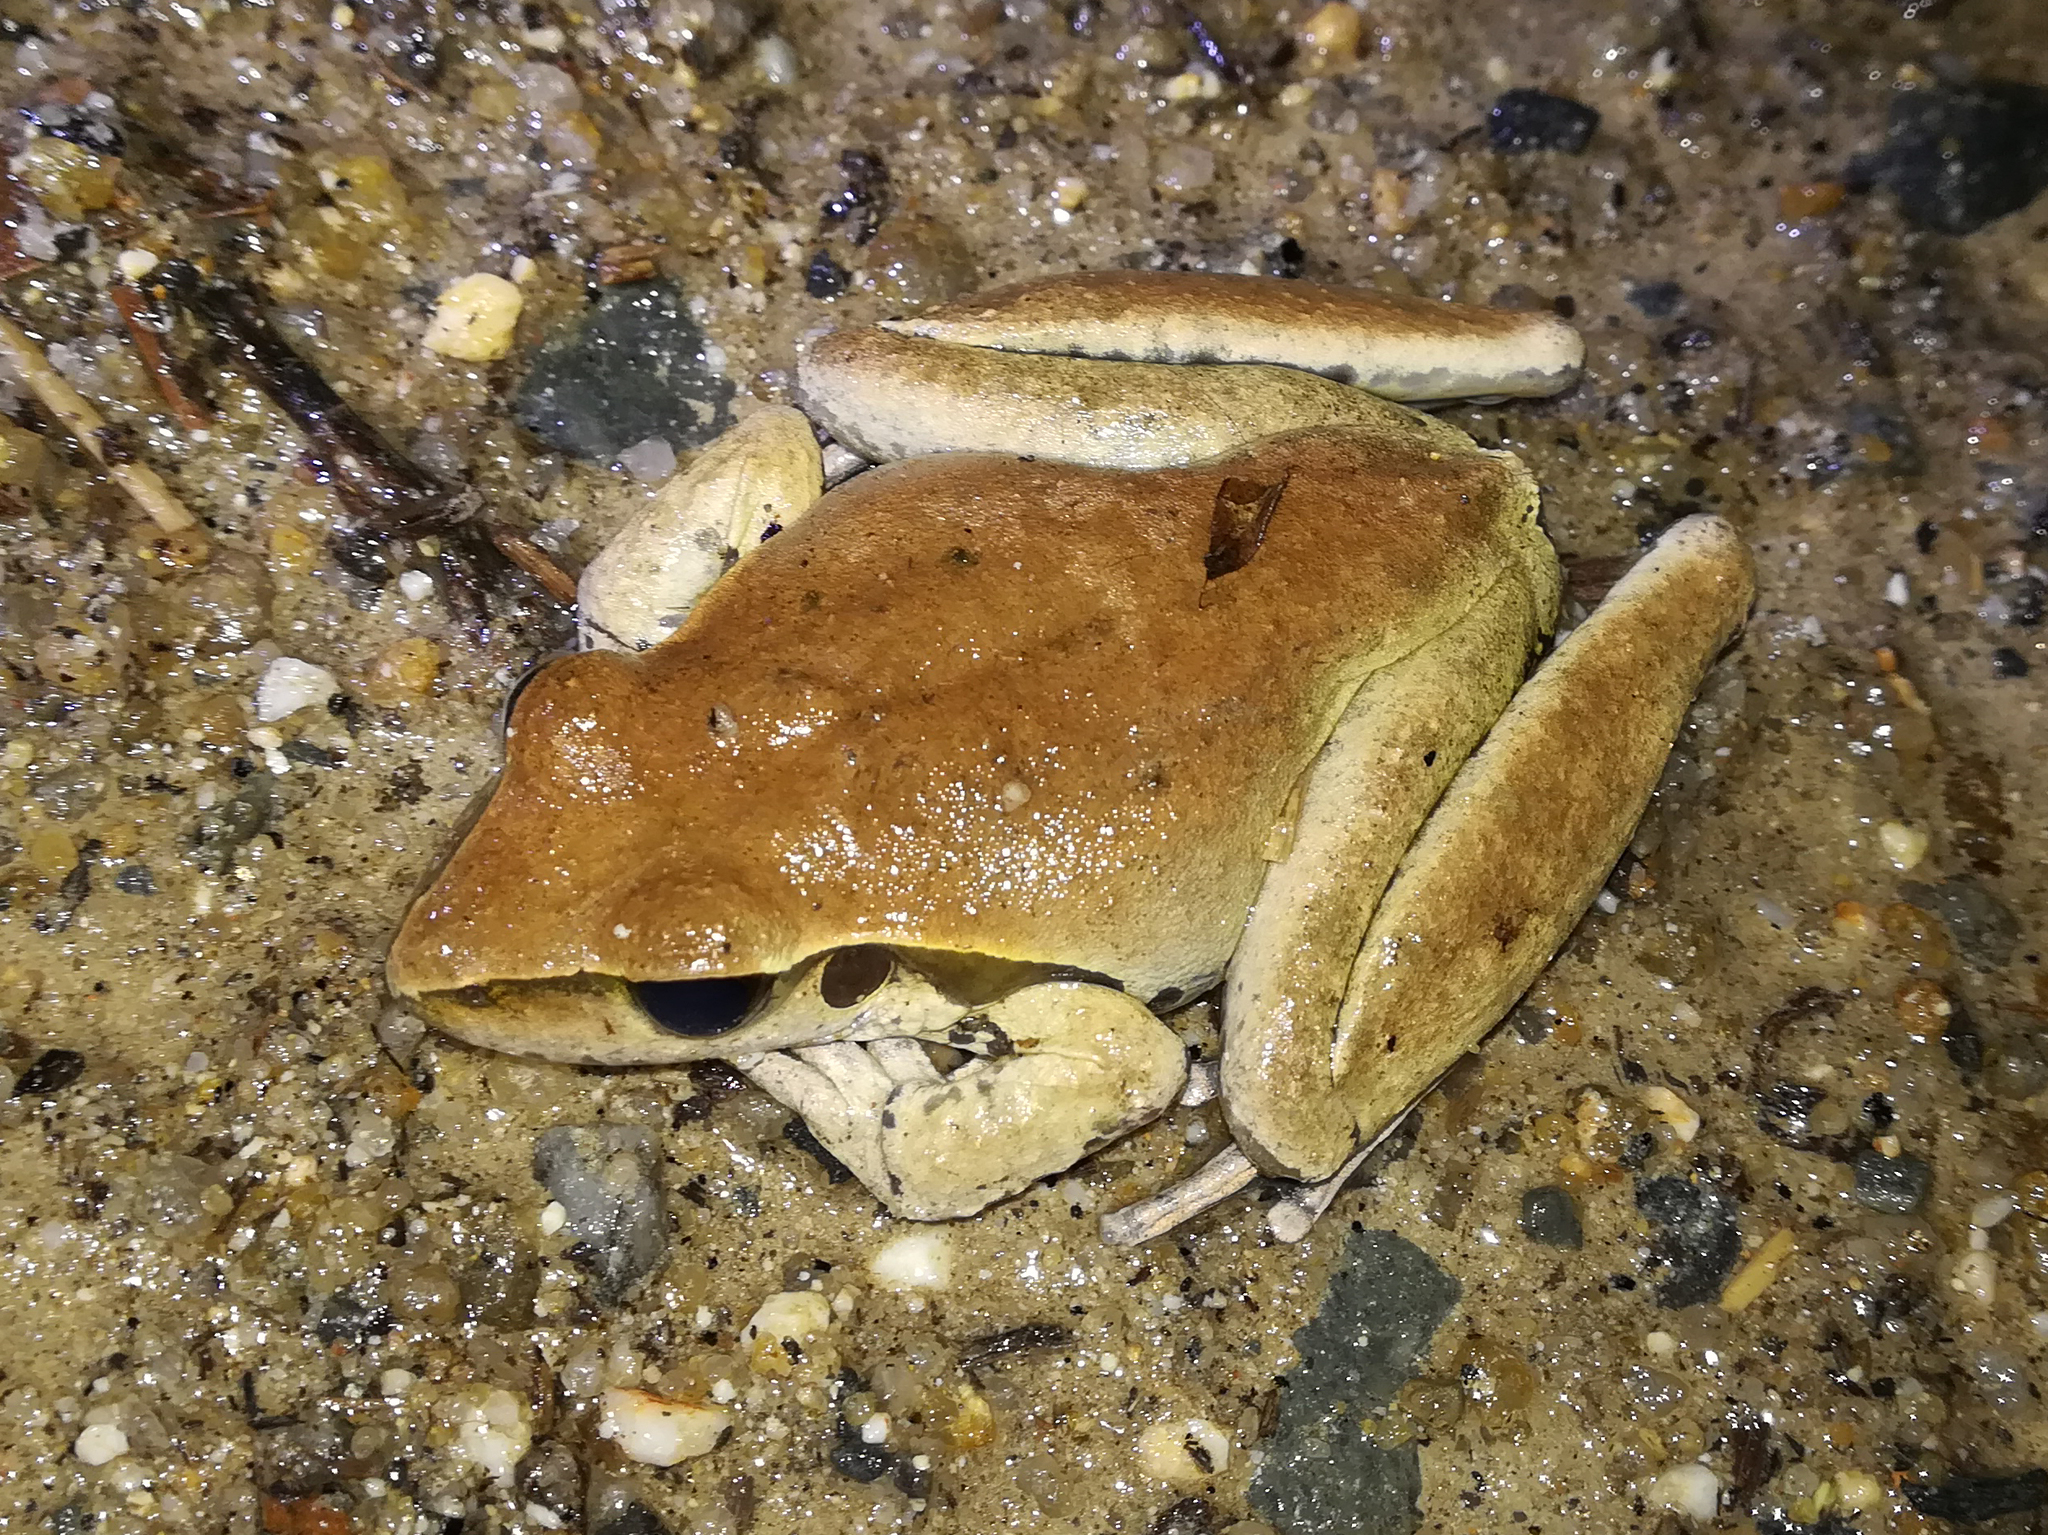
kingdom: Animalia
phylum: Chordata
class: Amphibia
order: Anura
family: Pelodryadidae
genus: Ranoidea
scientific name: Ranoidea jungguy
